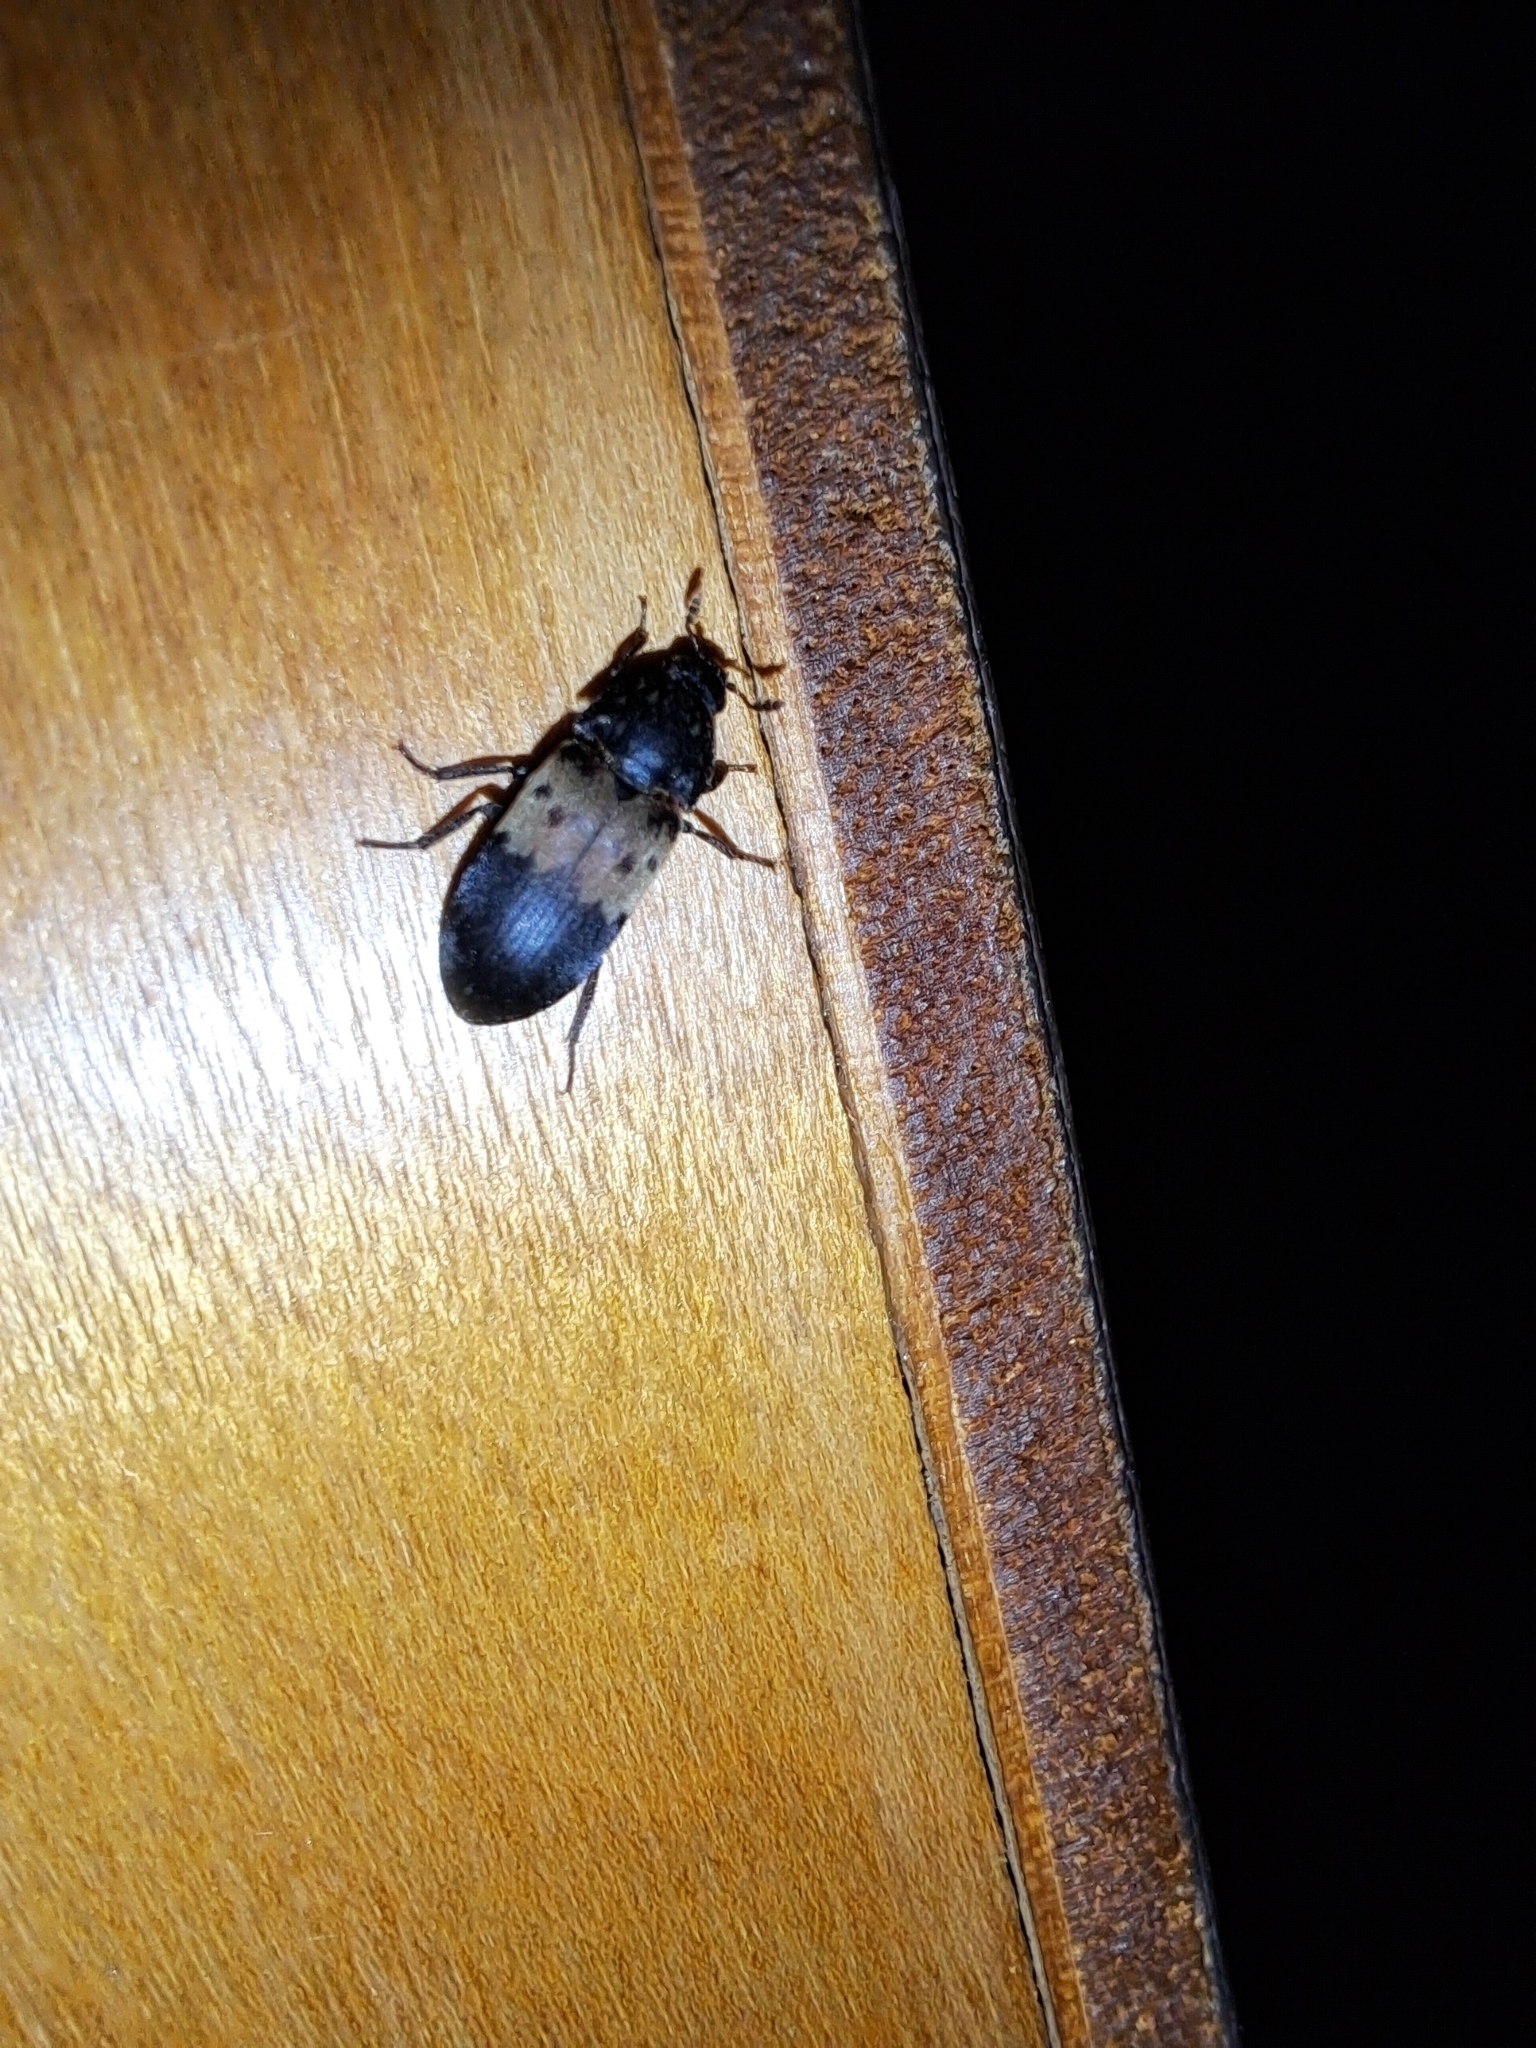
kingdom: Animalia
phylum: Arthropoda
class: Insecta
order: Coleoptera
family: Dermestidae
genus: Dermestes
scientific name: Dermestes lardarius
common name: Larder beetle
